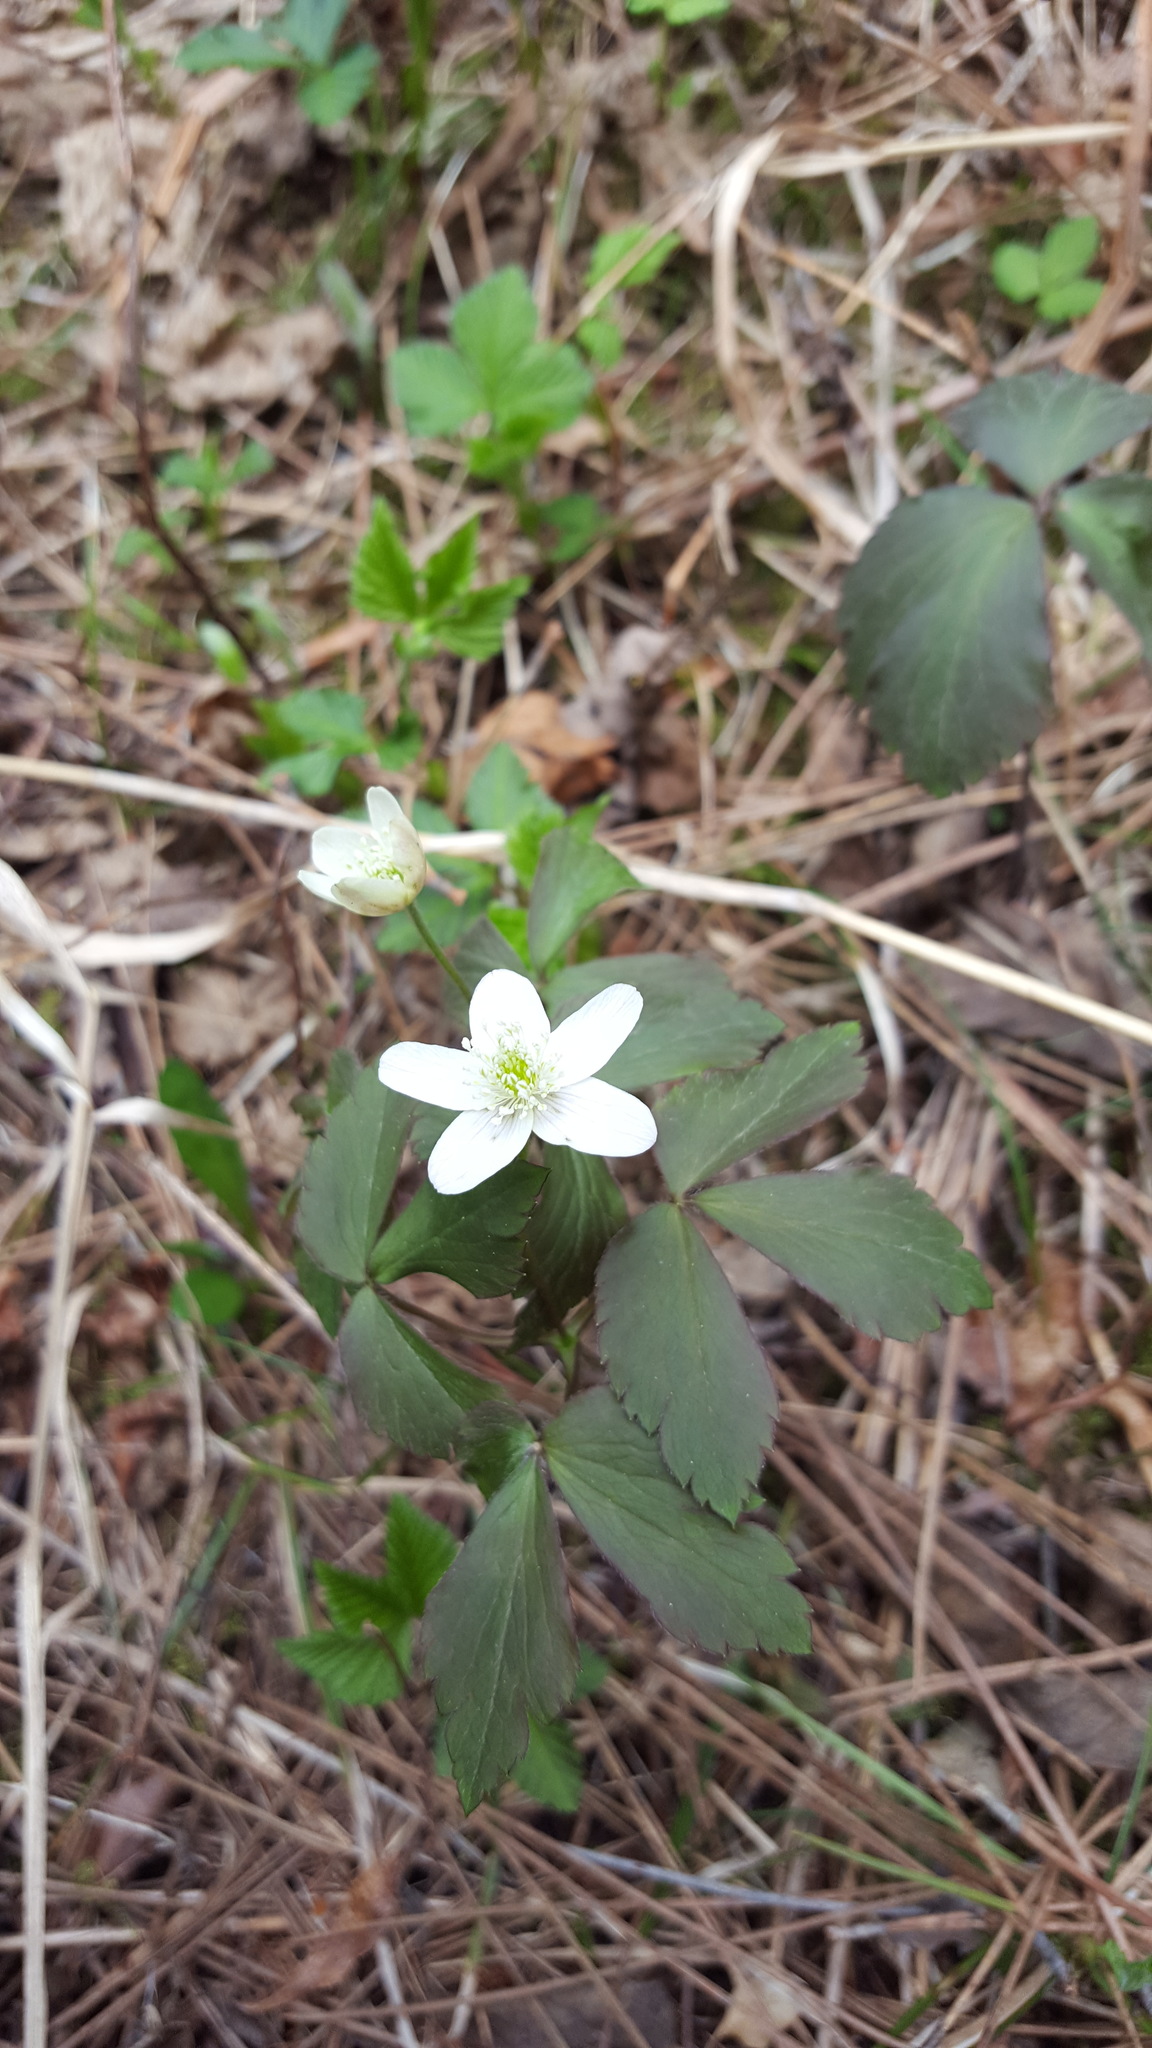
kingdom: Plantae
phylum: Tracheophyta
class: Magnoliopsida
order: Ranunculales
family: Ranunculaceae
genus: Anemone
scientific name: Anemone quinquefolia
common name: Wood anemone
